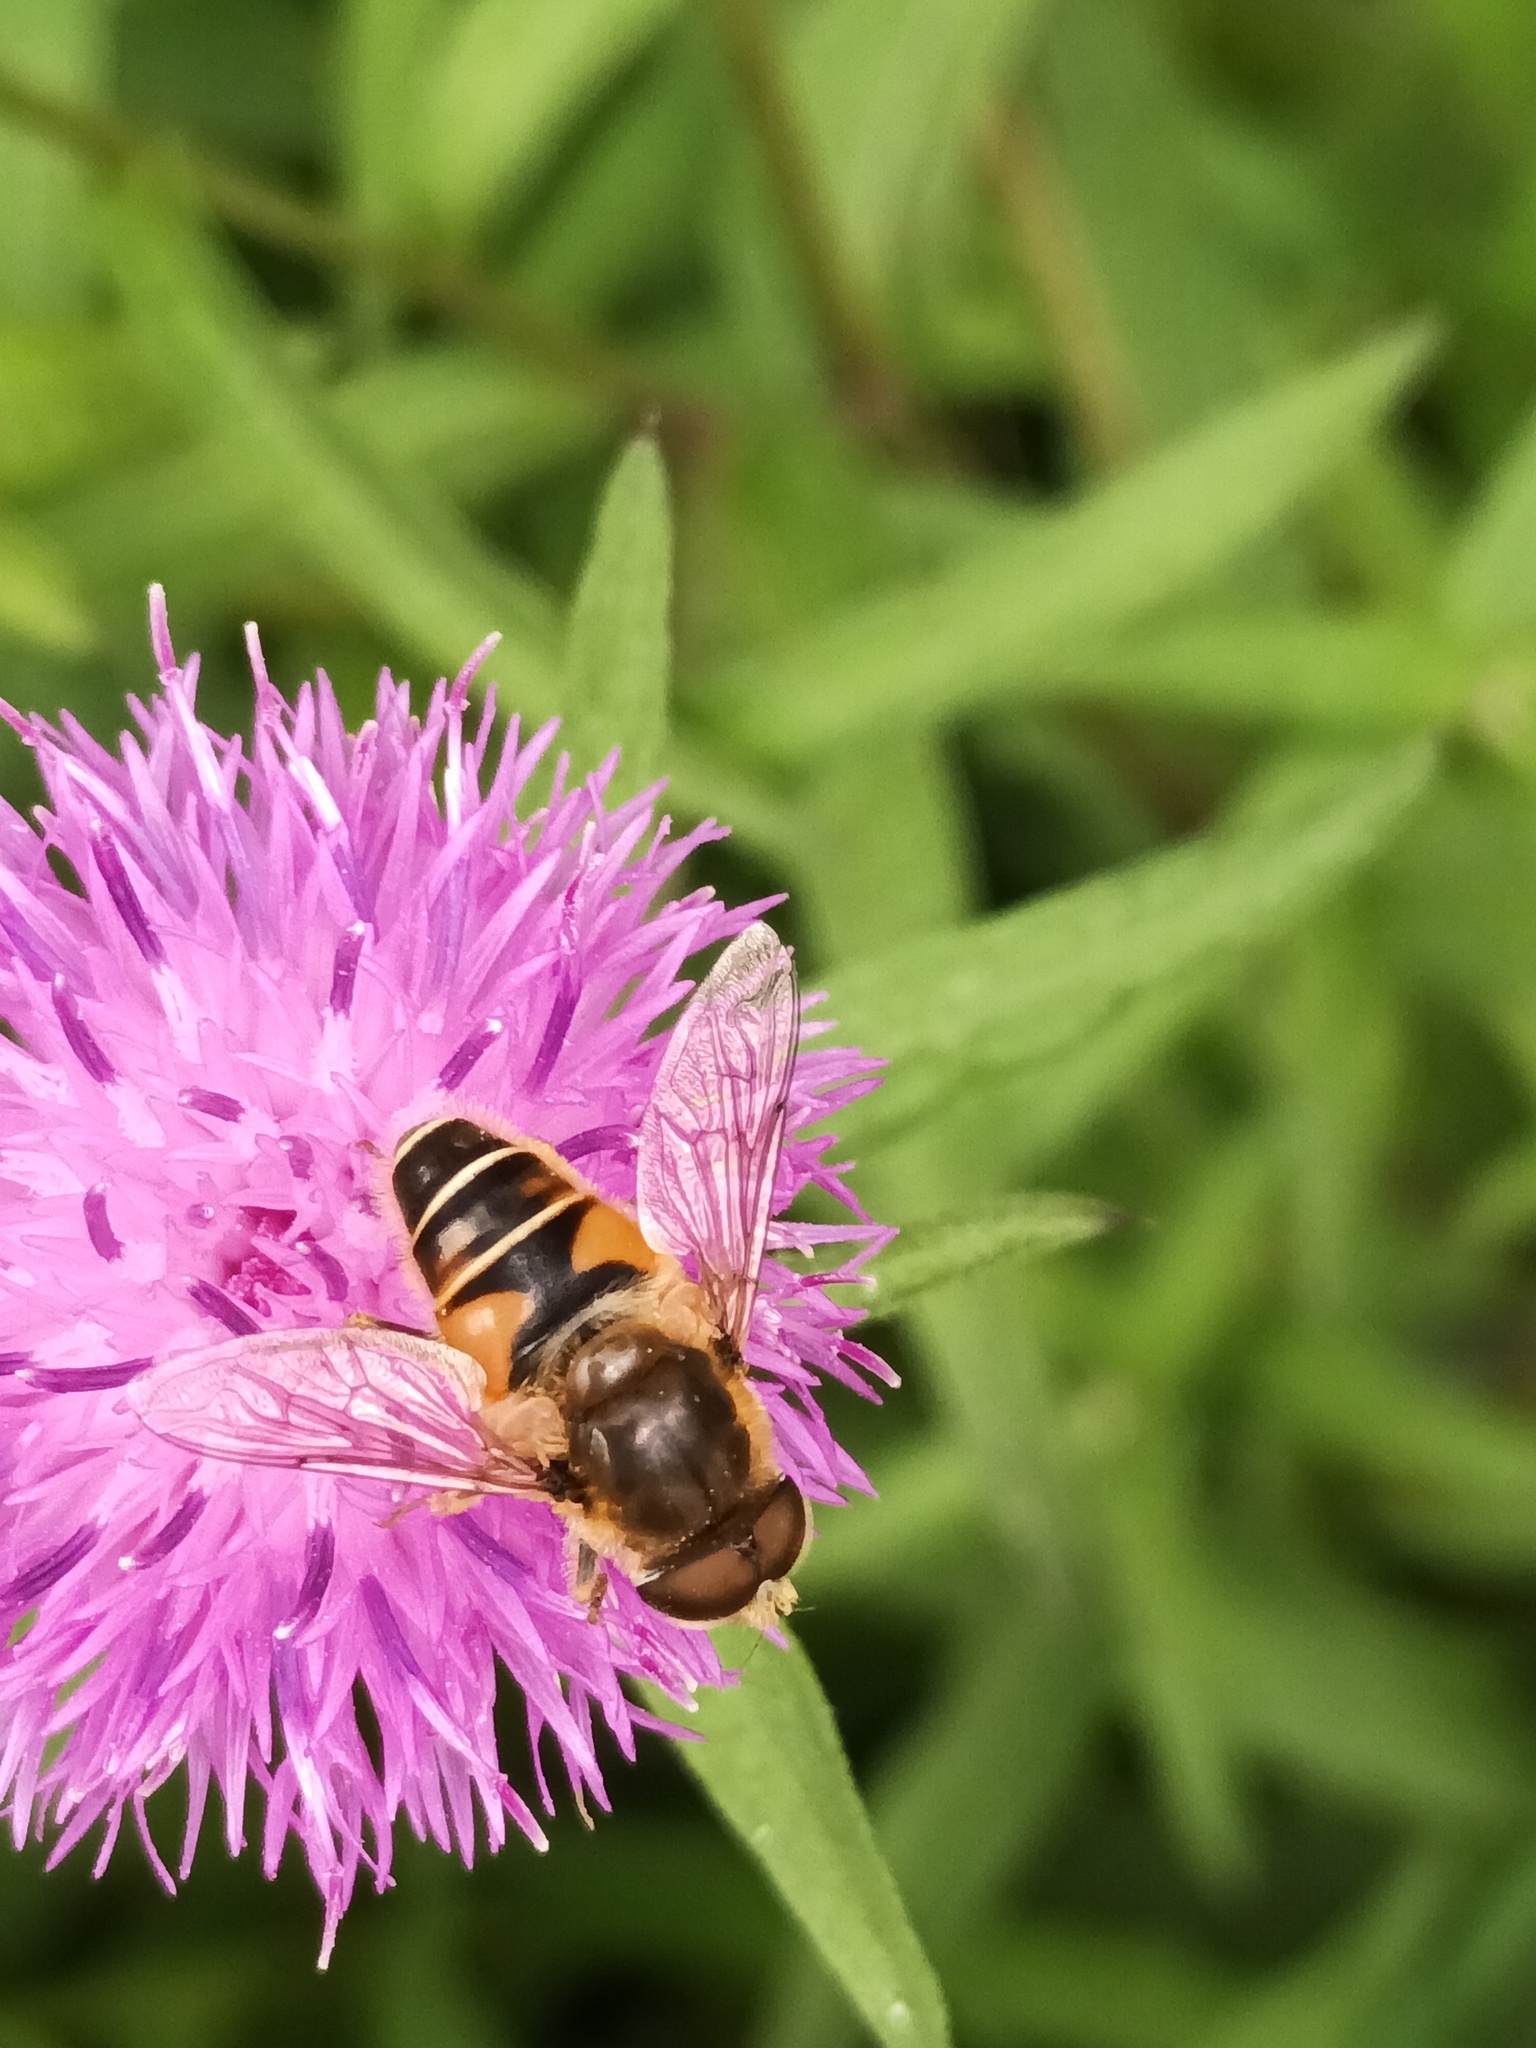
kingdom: Animalia
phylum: Arthropoda
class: Insecta
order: Diptera
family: Syrphidae
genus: Eristalis
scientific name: Eristalis nemorum
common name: Orange-spined drone fly
